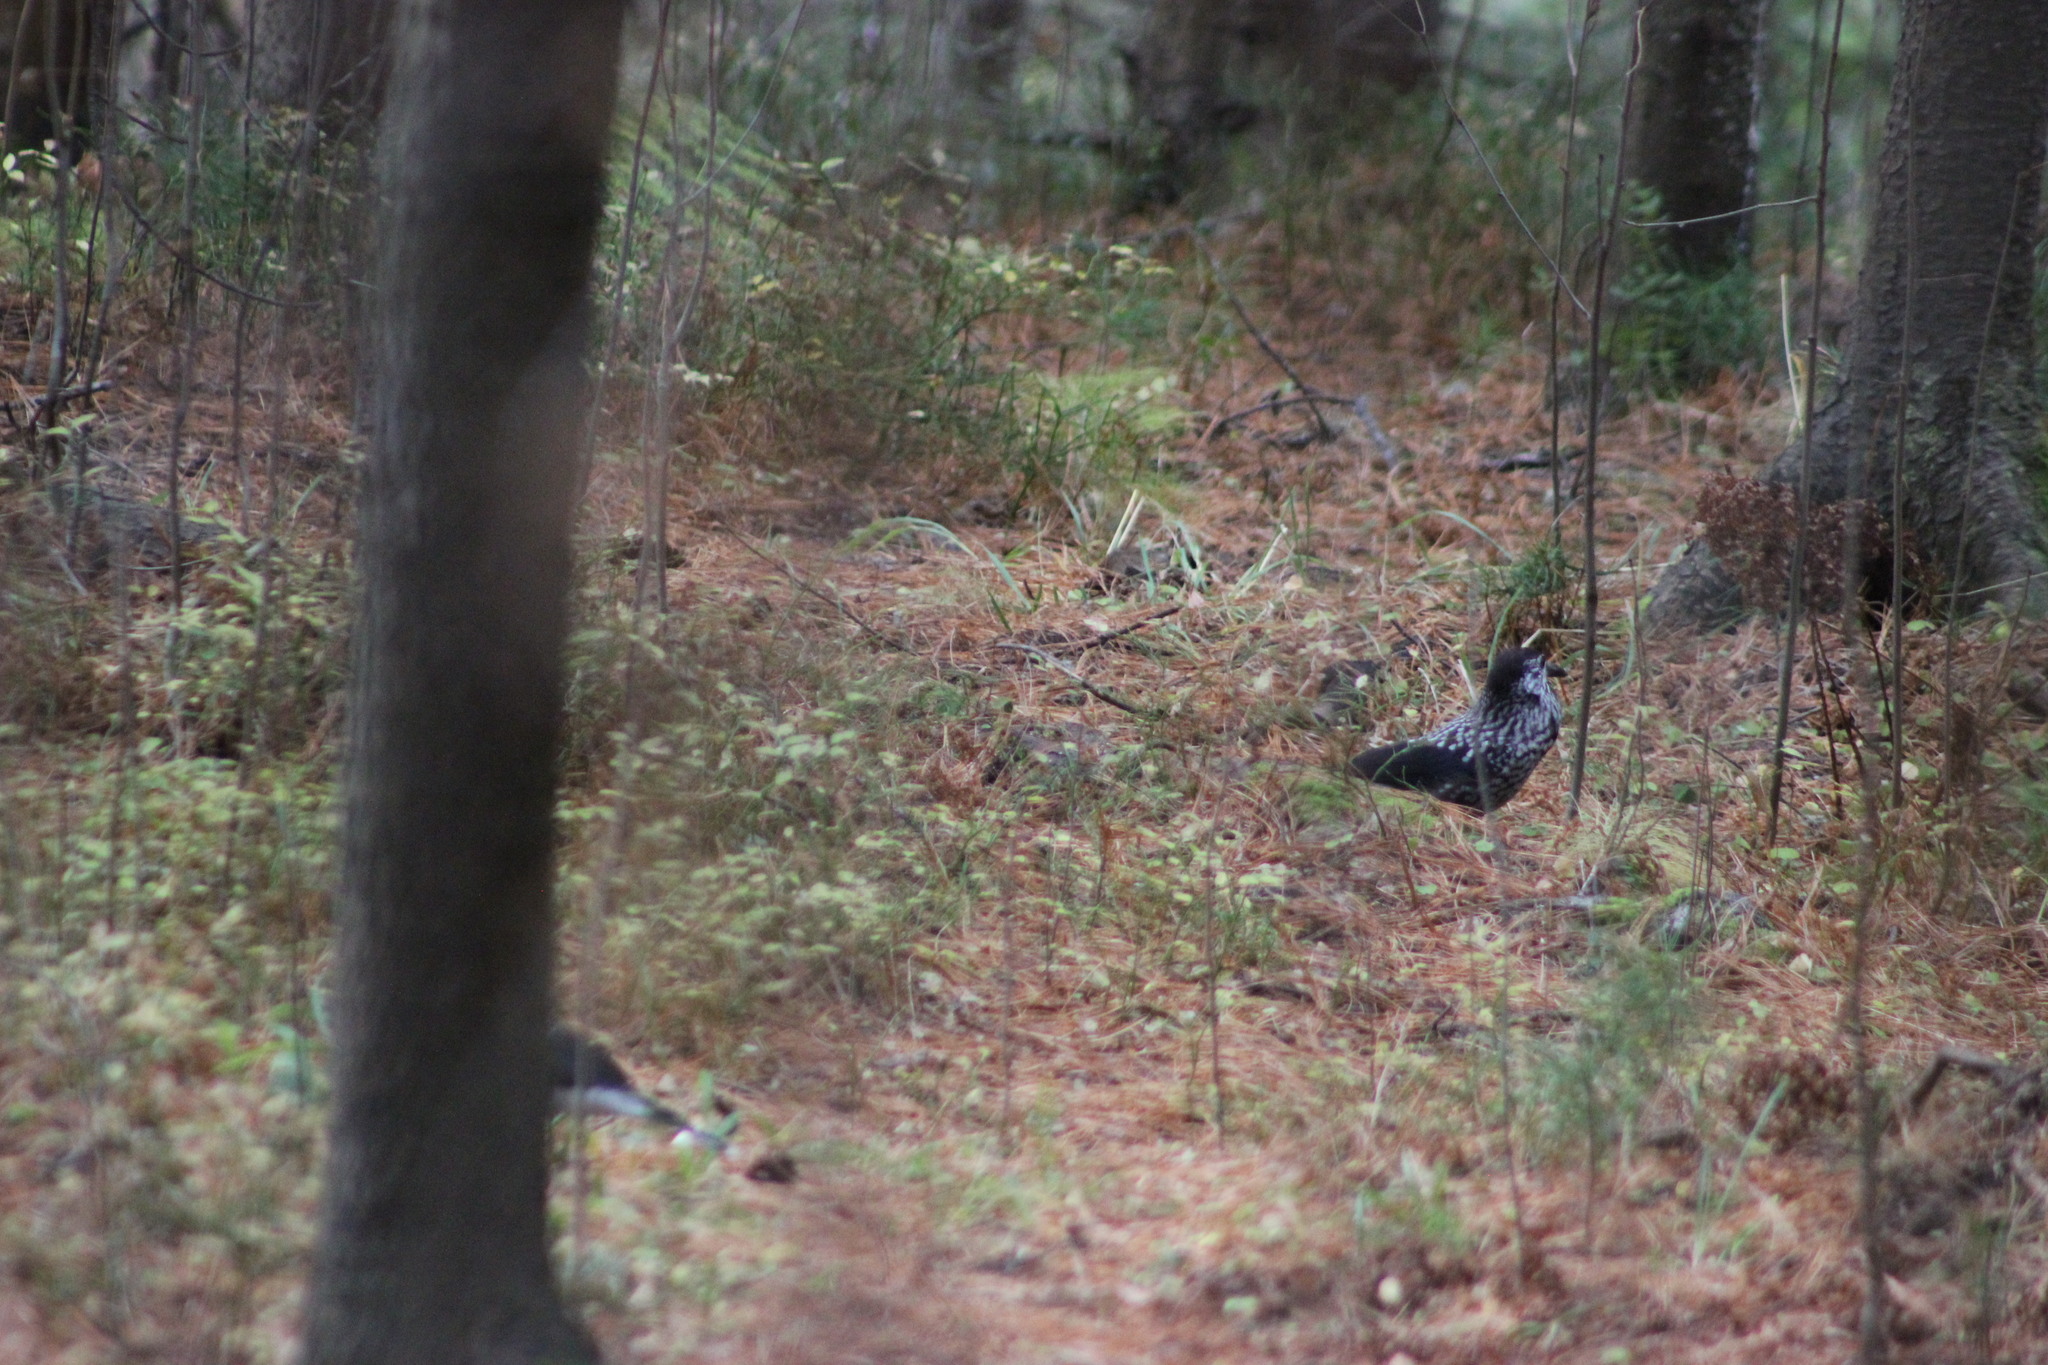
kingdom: Animalia
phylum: Chordata
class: Aves
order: Passeriformes
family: Corvidae
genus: Nucifraga
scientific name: Nucifraga caryocatactes
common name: Spotted nutcracker
